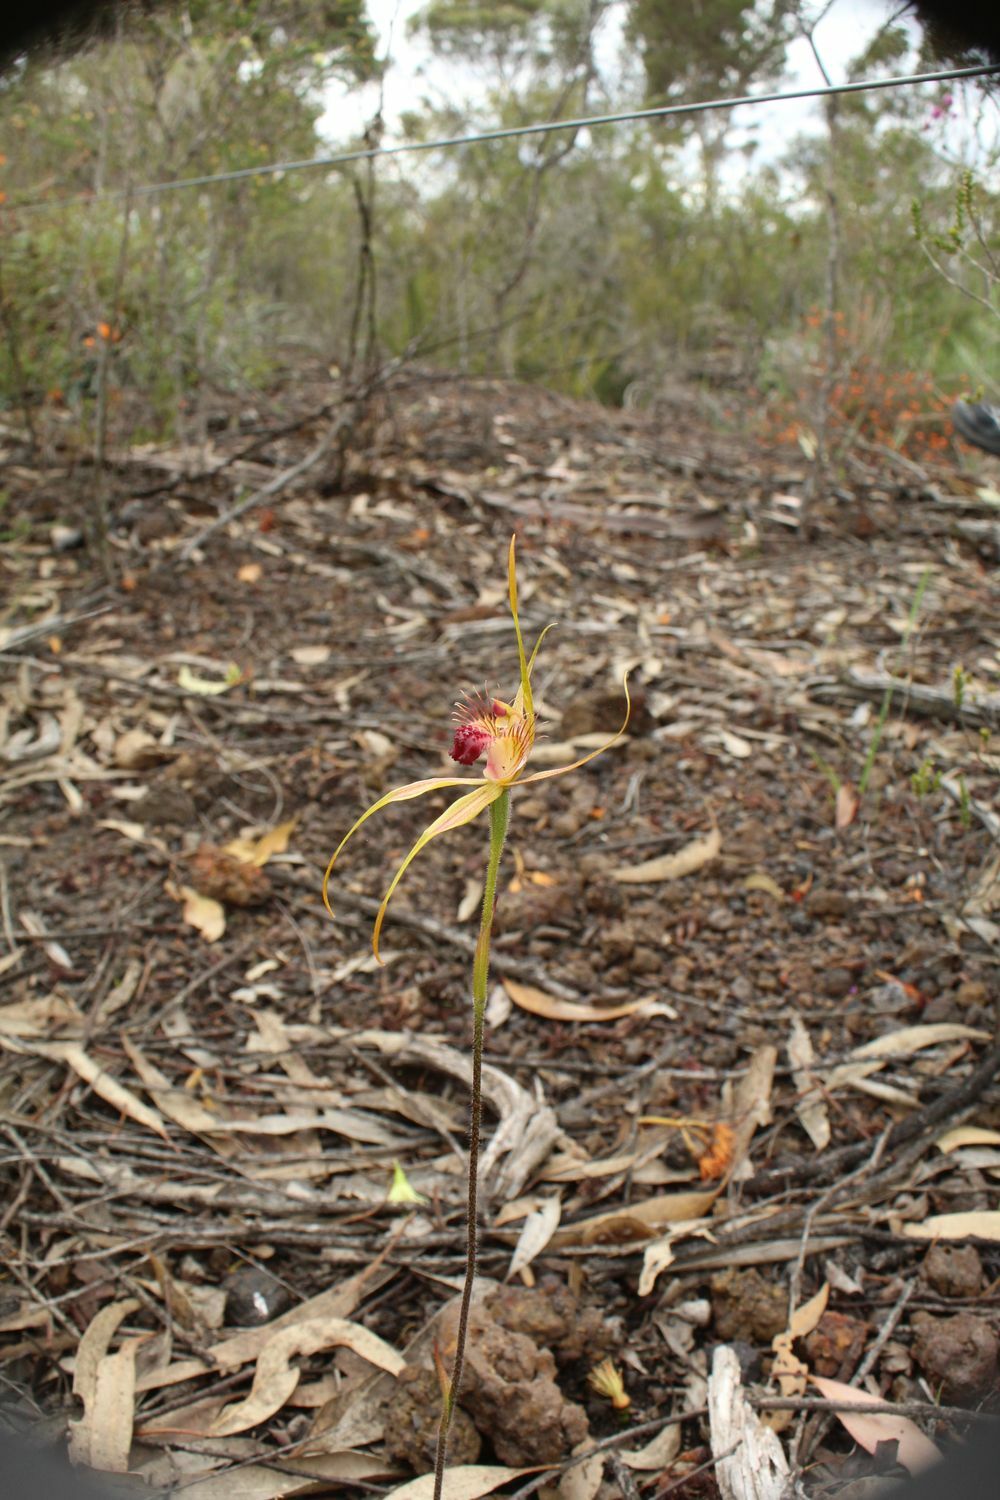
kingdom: Plantae
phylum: Tracheophyta
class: Liliopsida
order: Asparagales
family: Orchidaceae
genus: Caladenia
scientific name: Caladenia pectinata
